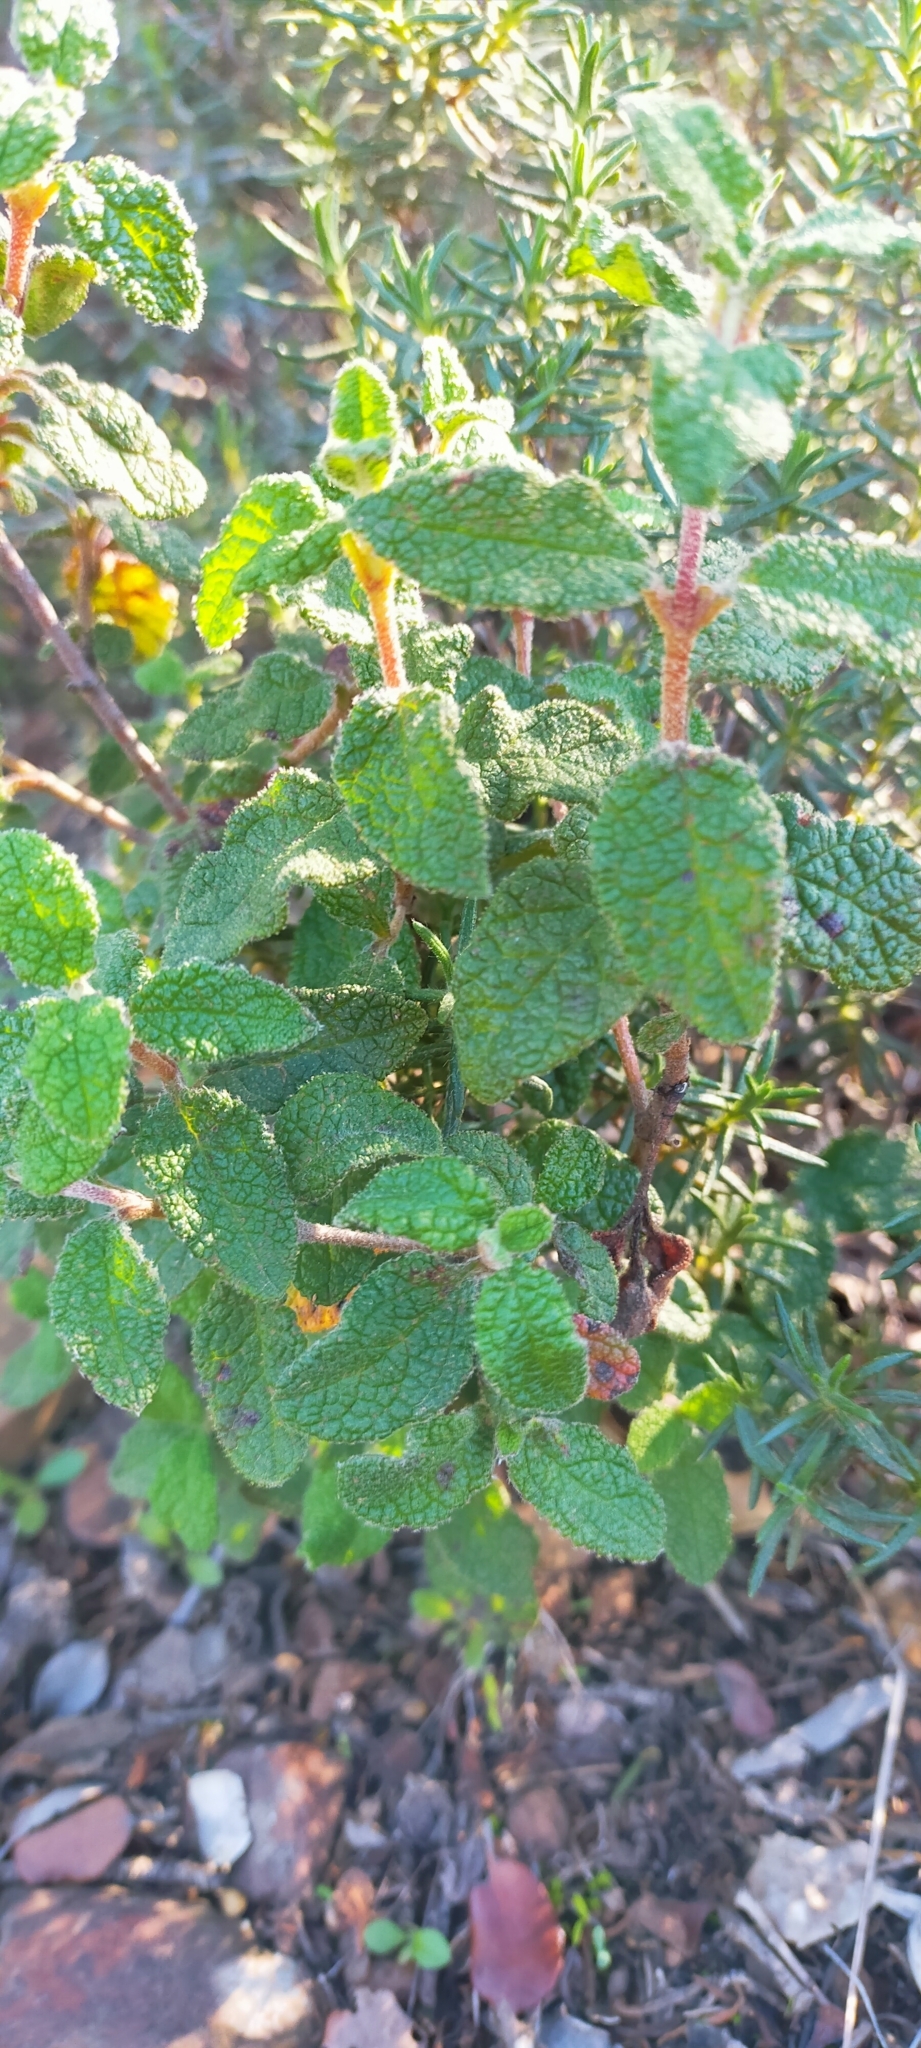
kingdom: Plantae
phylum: Tracheophyta
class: Magnoliopsida
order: Malvales
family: Cistaceae
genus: Cistus
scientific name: Cistus salviifolius
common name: Salvia cistus
